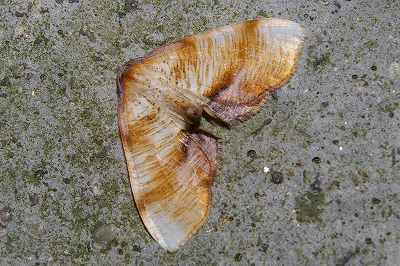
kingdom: Animalia
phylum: Arthropoda
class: Insecta
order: Lepidoptera
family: Geometridae
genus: Plagodis
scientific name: Plagodis dolabraria
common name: Scorched wing
